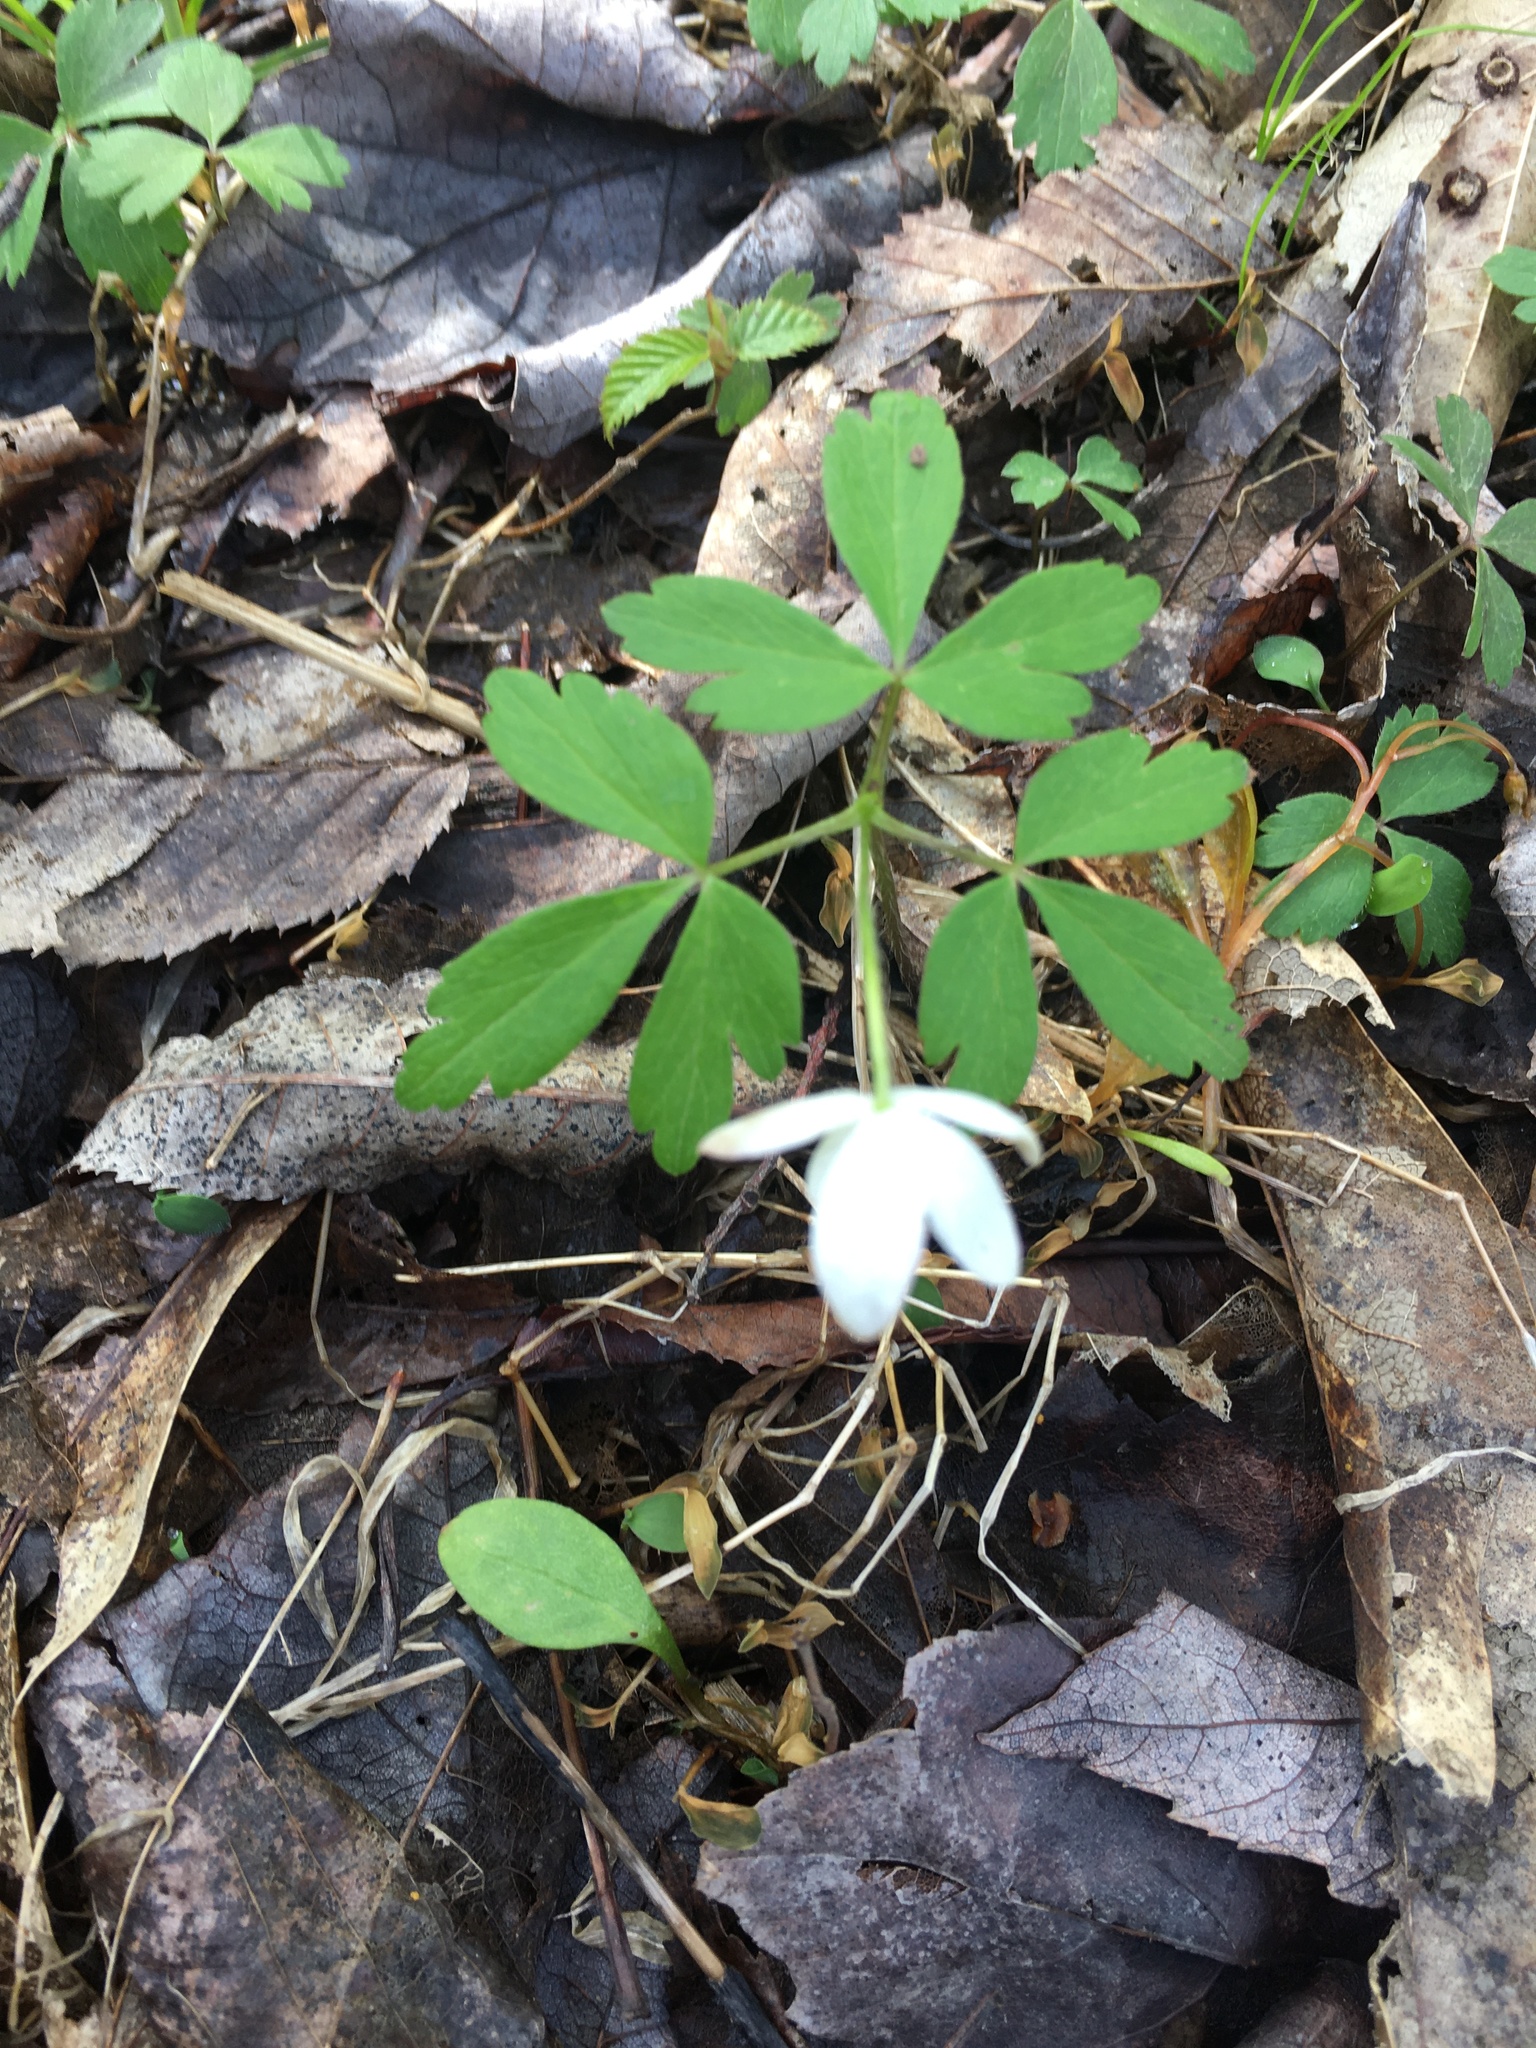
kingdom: Plantae
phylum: Tracheophyta
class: Magnoliopsida
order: Ranunculales
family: Ranunculaceae
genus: Anemone
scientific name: Anemone quinquefolia
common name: Wood anemone
